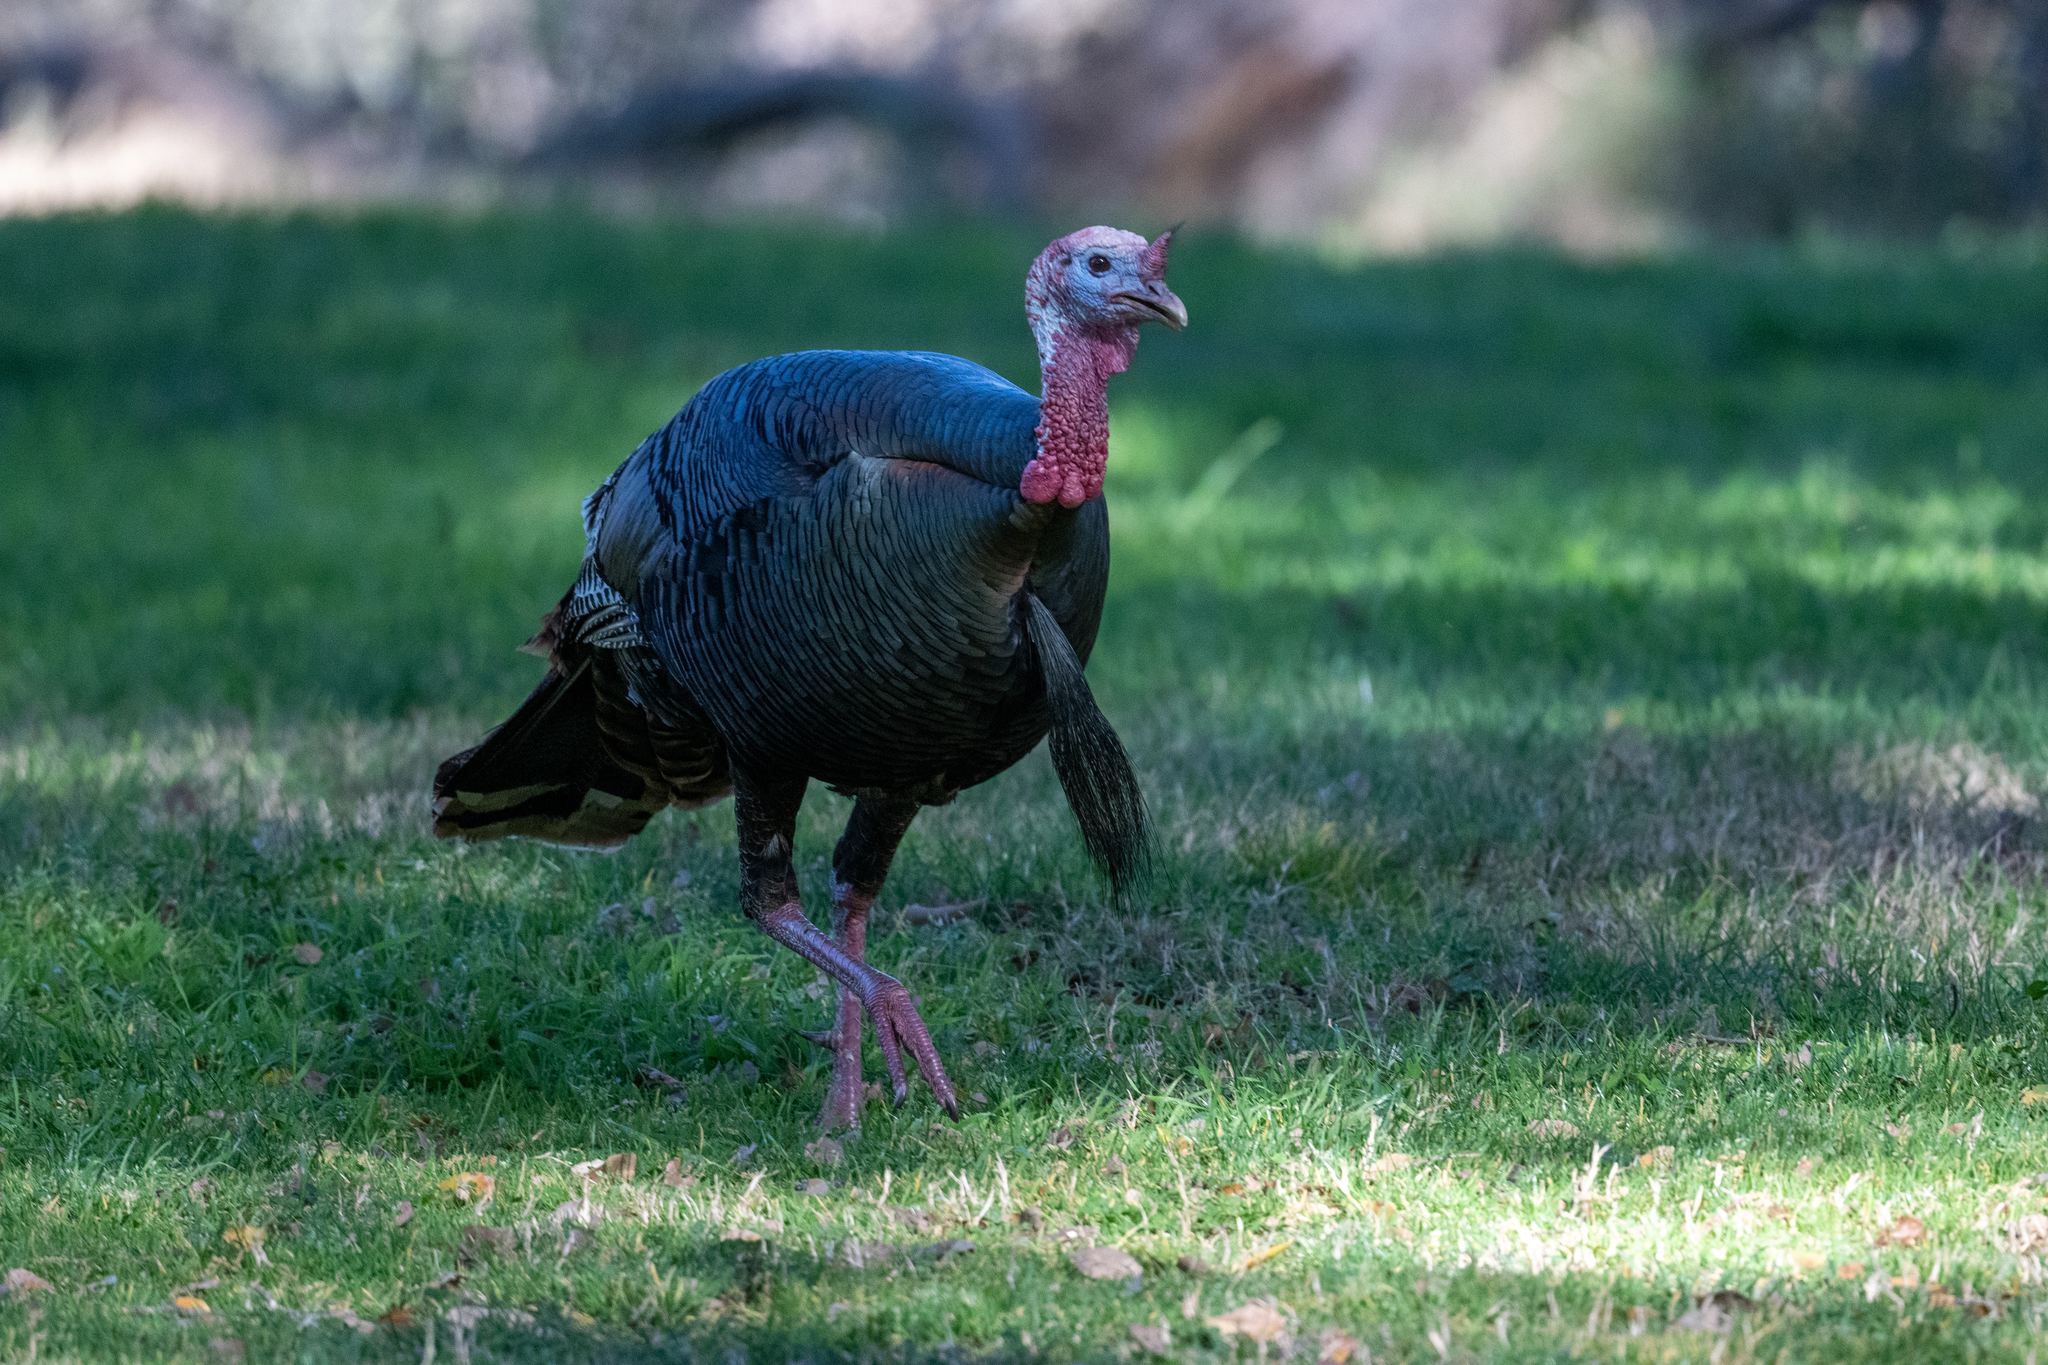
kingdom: Animalia
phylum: Chordata
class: Aves
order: Galliformes
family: Phasianidae
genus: Meleagris
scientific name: Meleagris gallopavo
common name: Wild turkey
